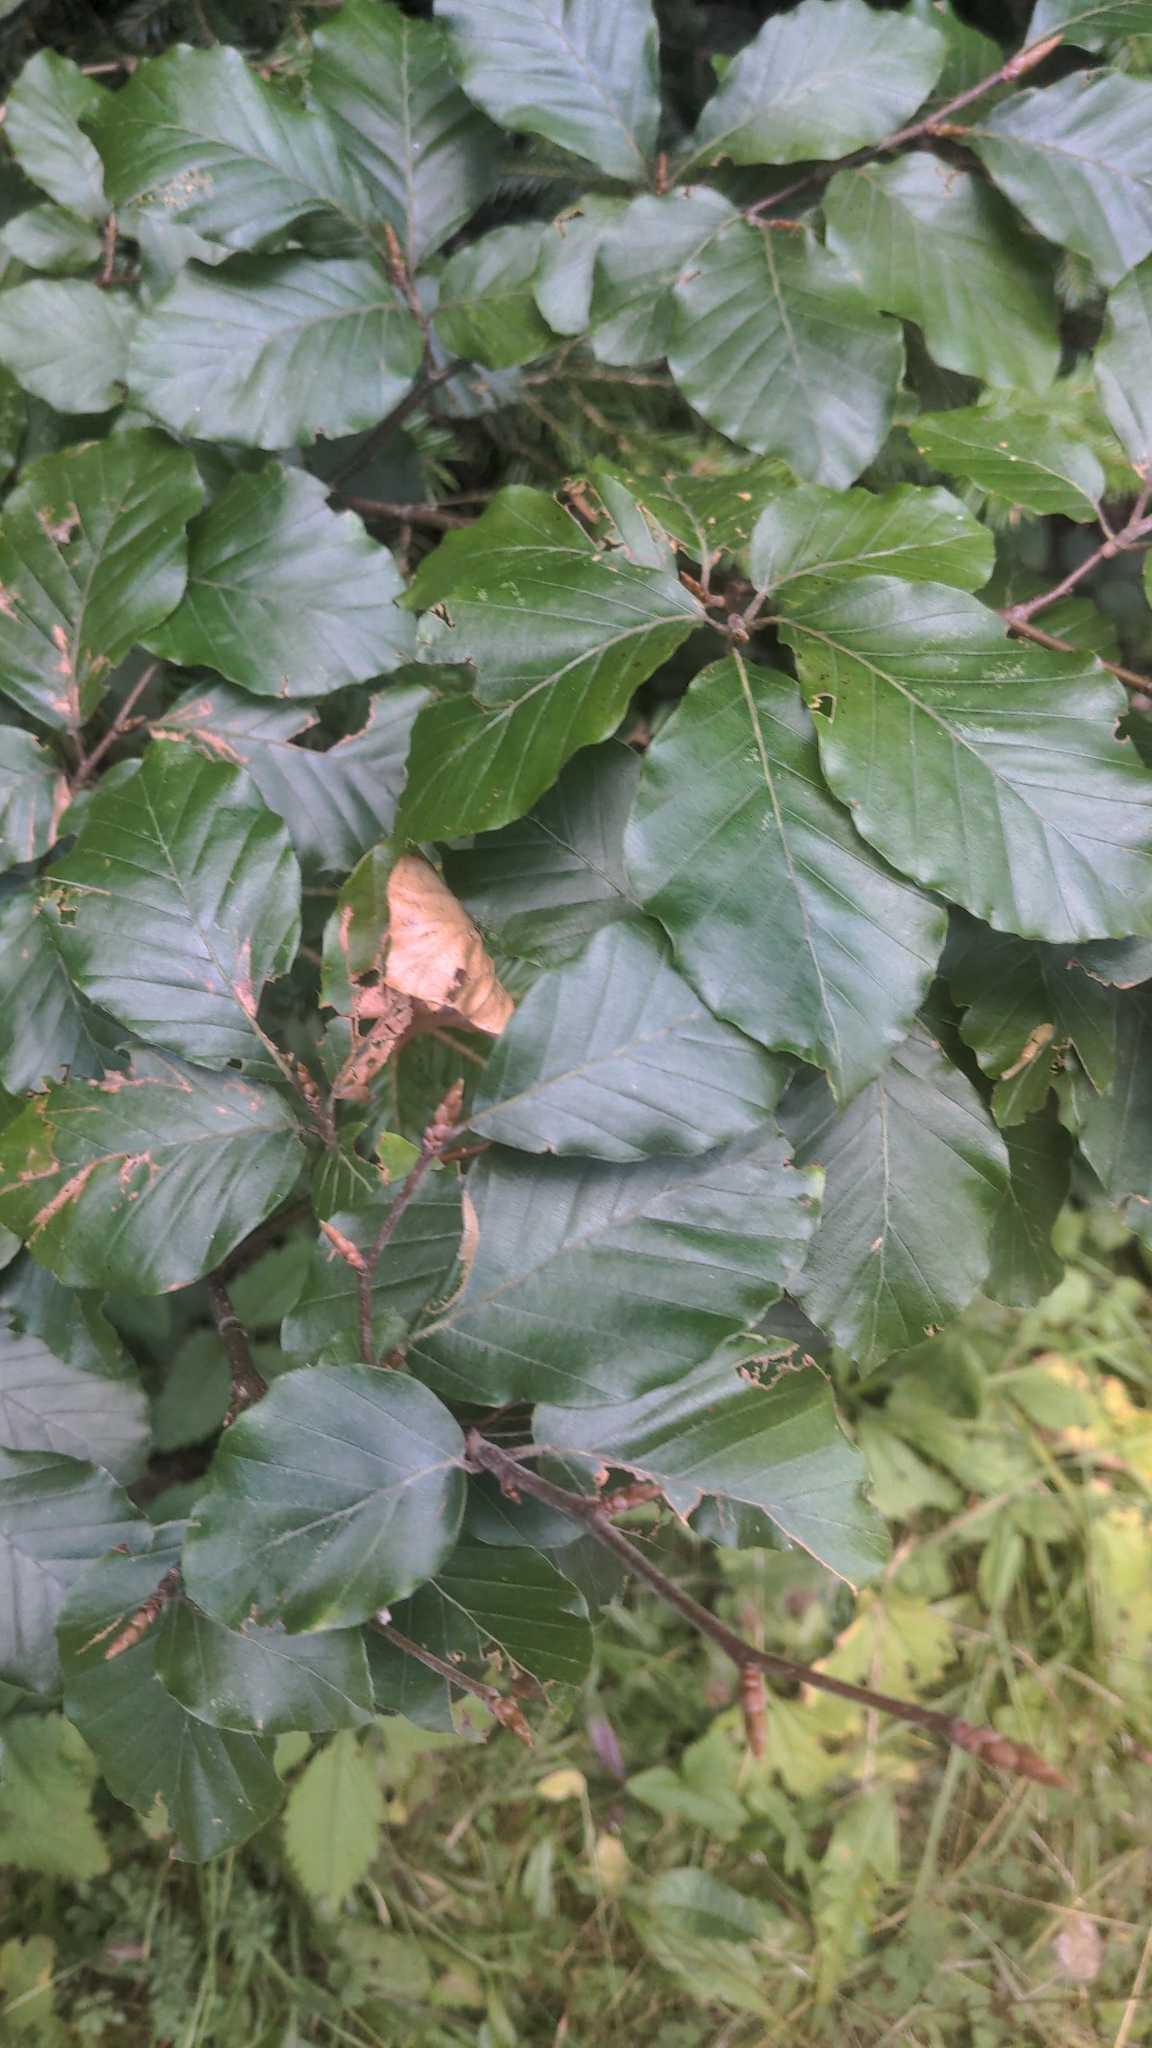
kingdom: Plantae
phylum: Tracheophyta
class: Magnoliopsida
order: Fagales
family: Fagaceae
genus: Fagus
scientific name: Fagus sylvatica
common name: Beech
